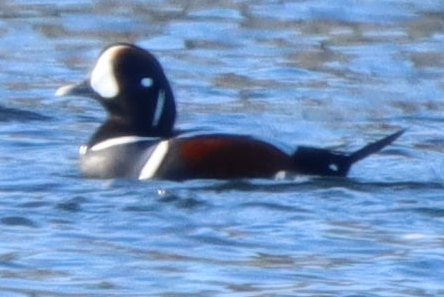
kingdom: Animalia
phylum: Chordata
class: Aves
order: Anseriformes
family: Anatidae
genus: Histrionicus
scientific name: Histrionicus histrionicus
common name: Harlequin duck
